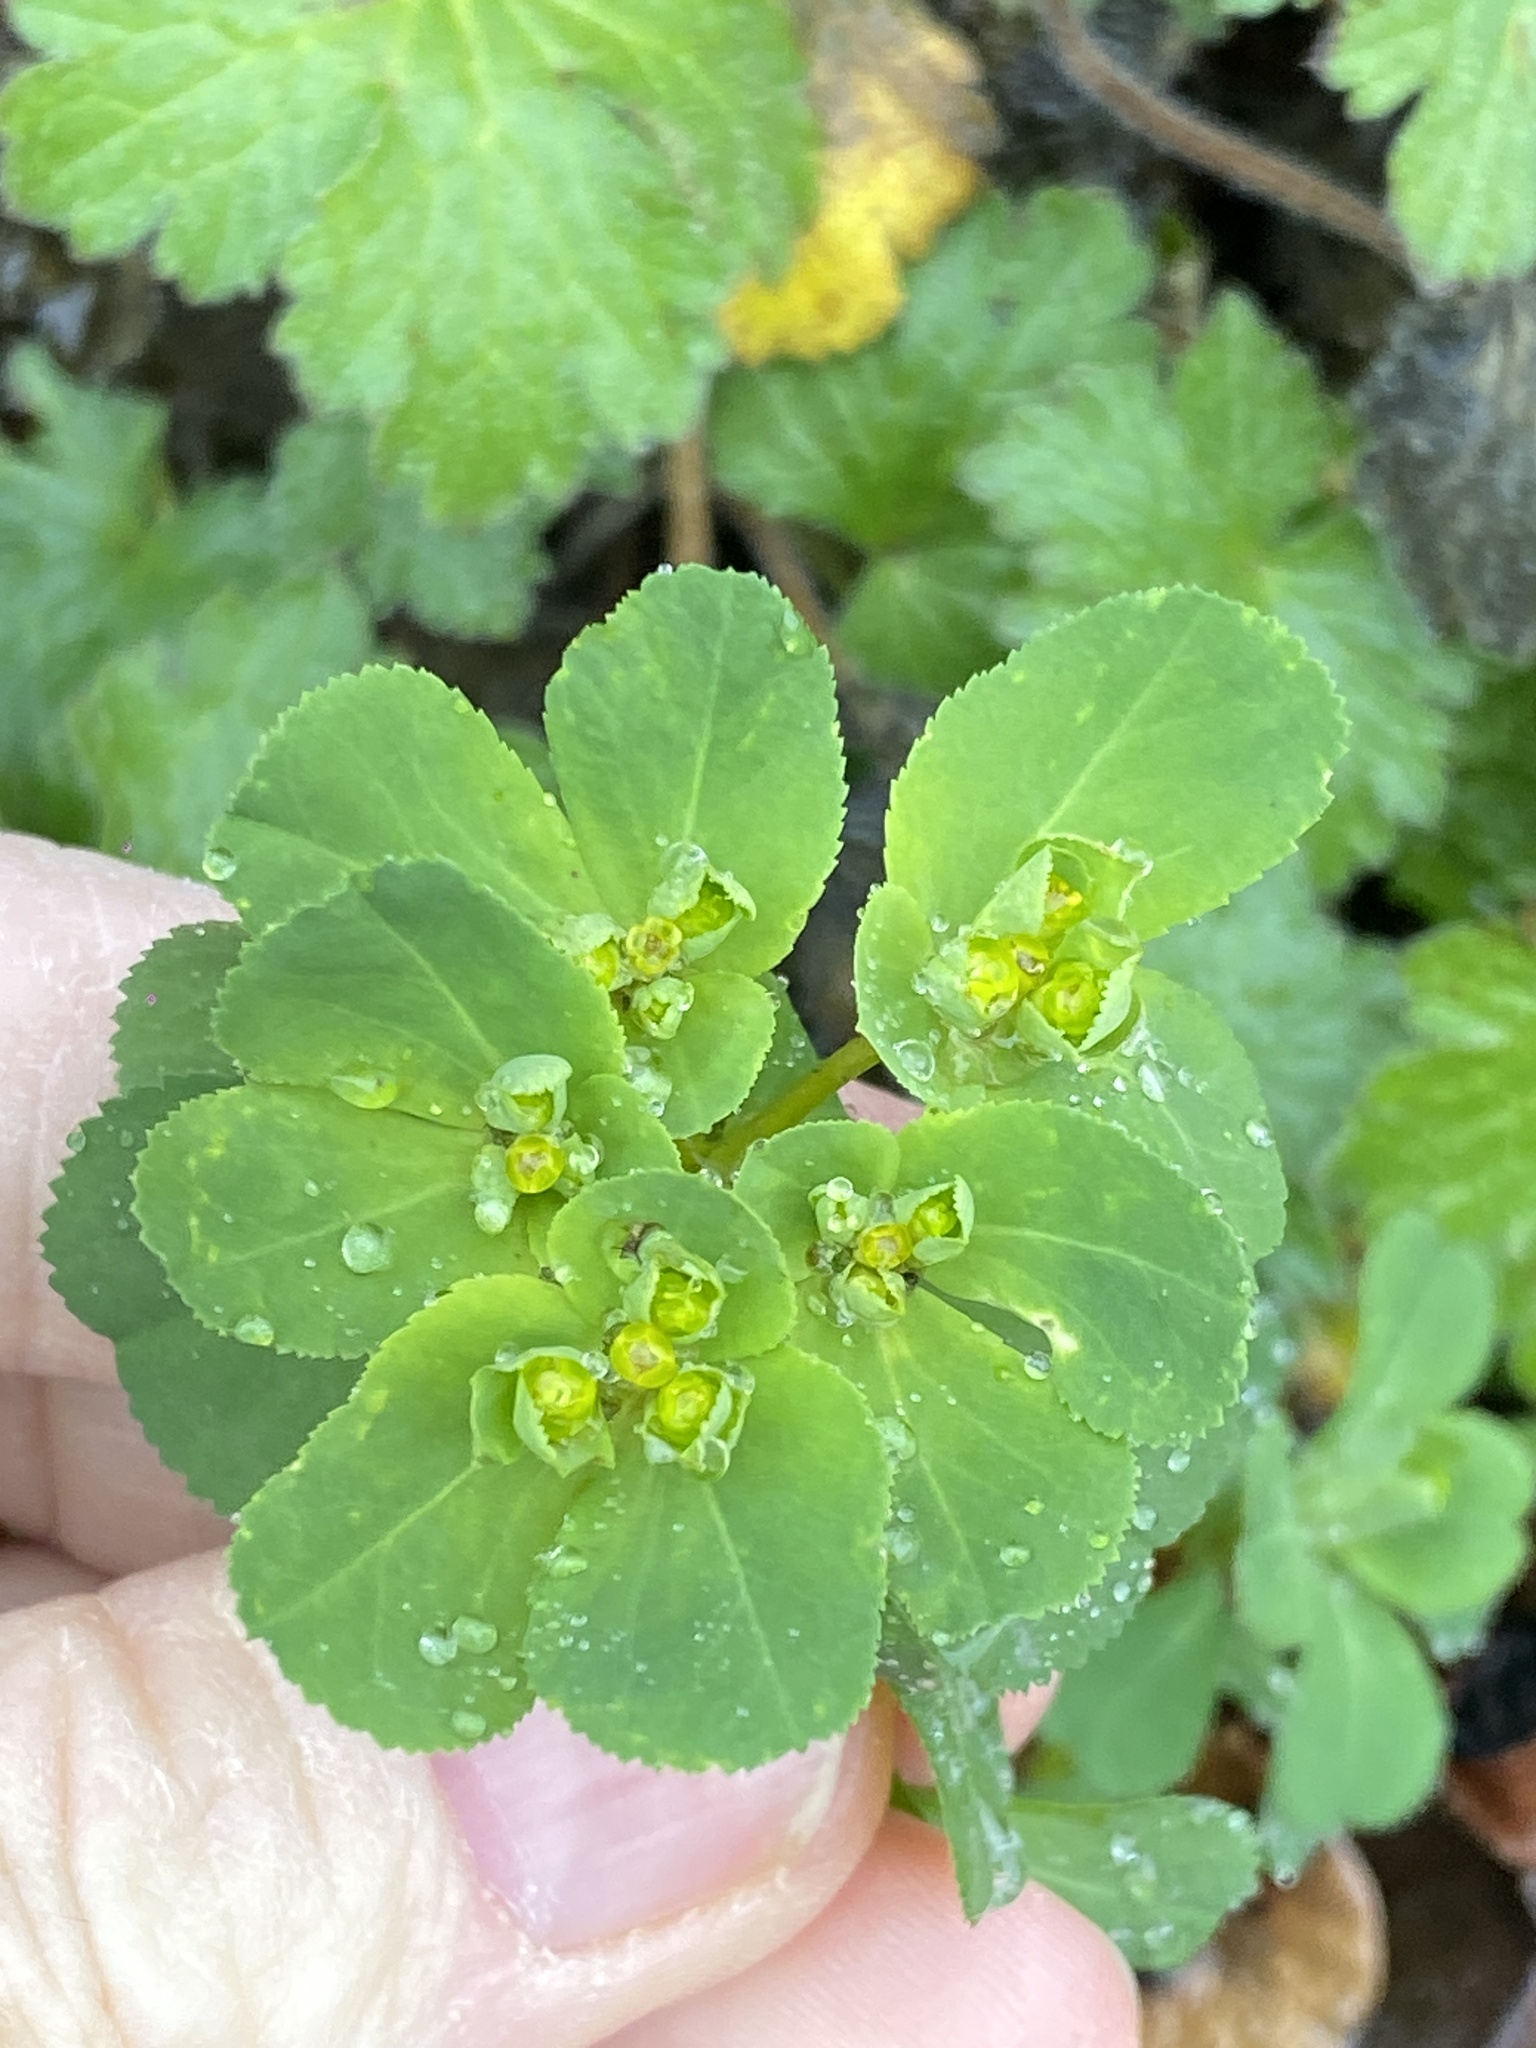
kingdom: Plantae
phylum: Tracheophyta
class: Magnoliopsida
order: Malpighiales
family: Euphorbiaceae
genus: Euphorbia
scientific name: Euphorbia helioscopia
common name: Sun spurge
